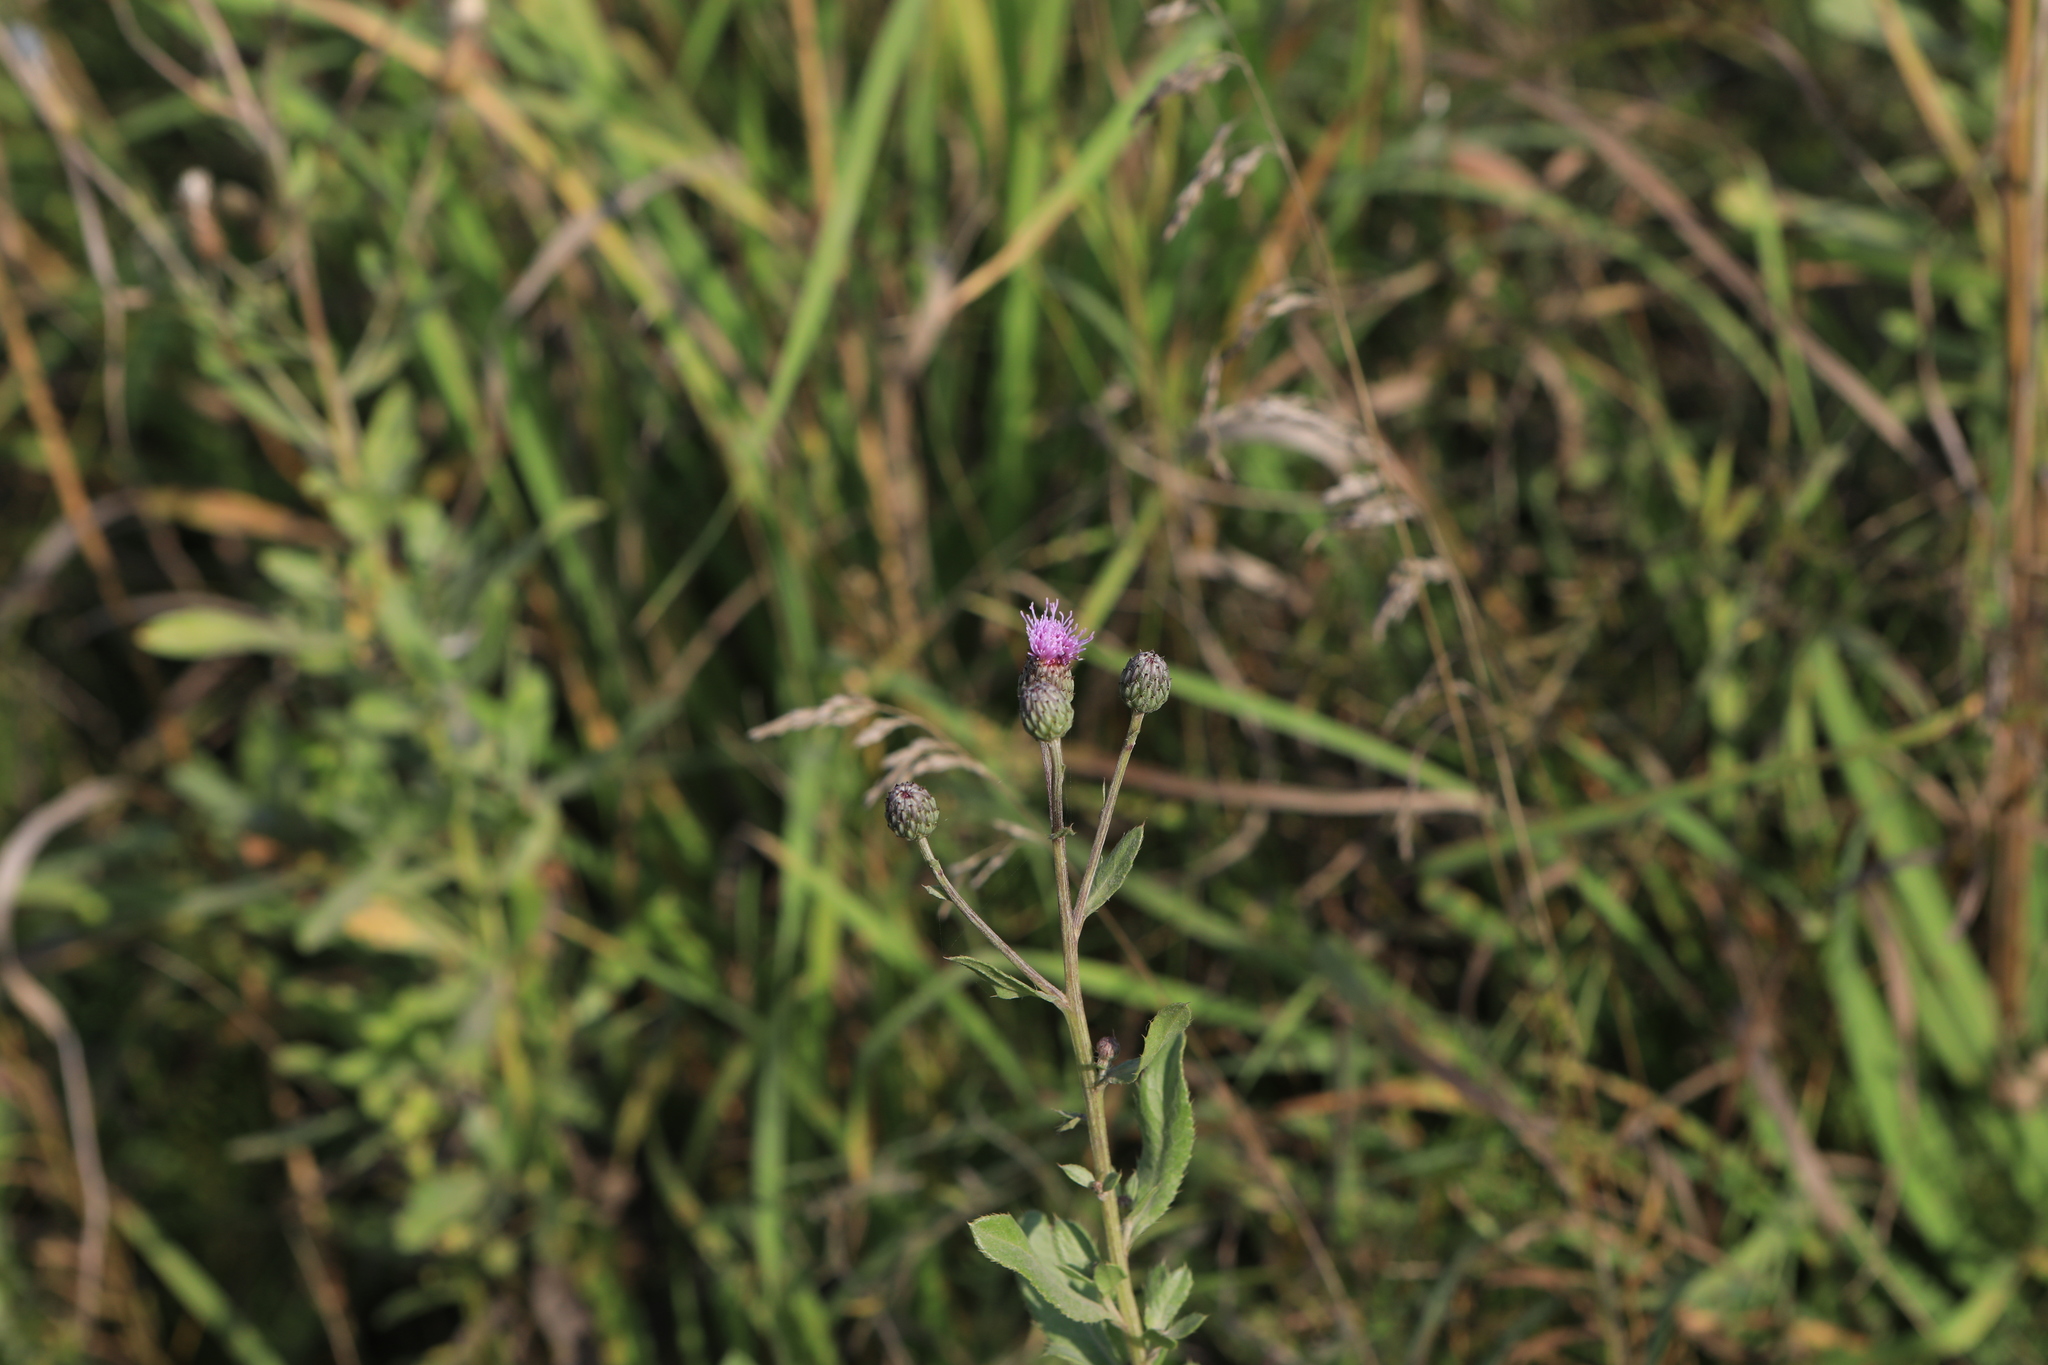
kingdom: Plantae
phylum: Tracheophyta
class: Magnoliopsida
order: Asterales
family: Asteraceae
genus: Cirsium
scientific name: Cirsium arvense
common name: Creeping thistle
